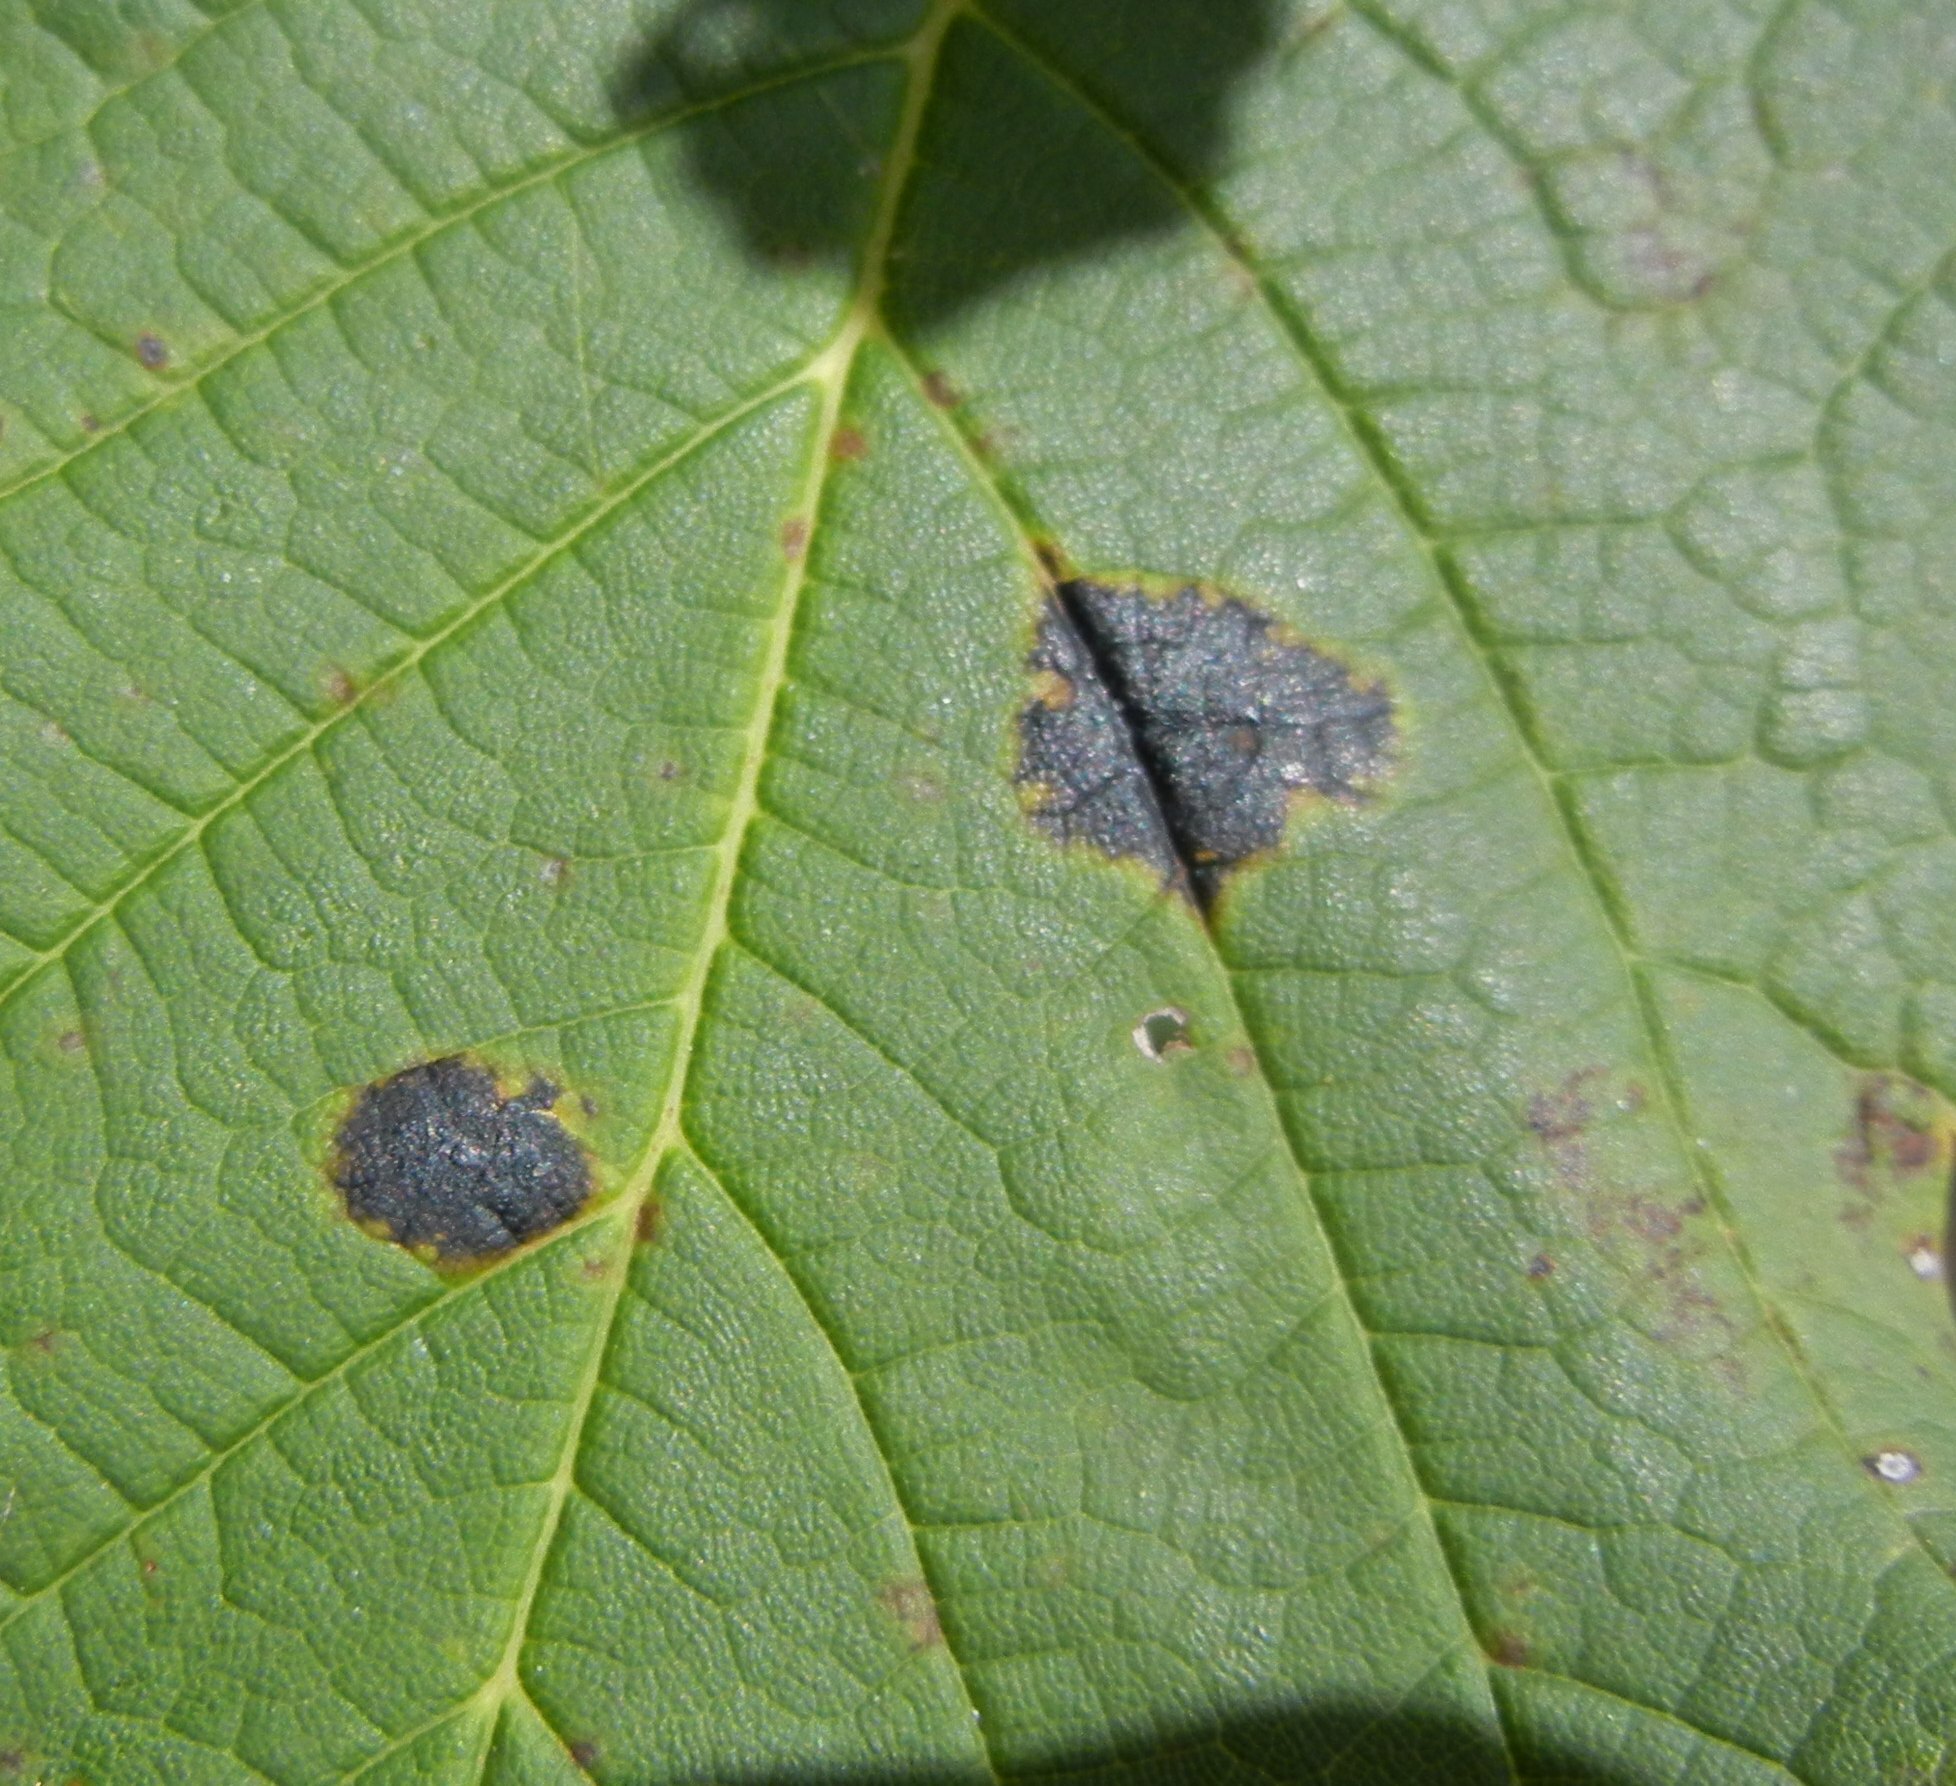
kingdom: Fungi
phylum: Ascomycota
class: Leotiomycetes
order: Rhytismatales
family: Rhytismataceae
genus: Rhytisma
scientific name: Rhytisma acerinum
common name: European tar spot
